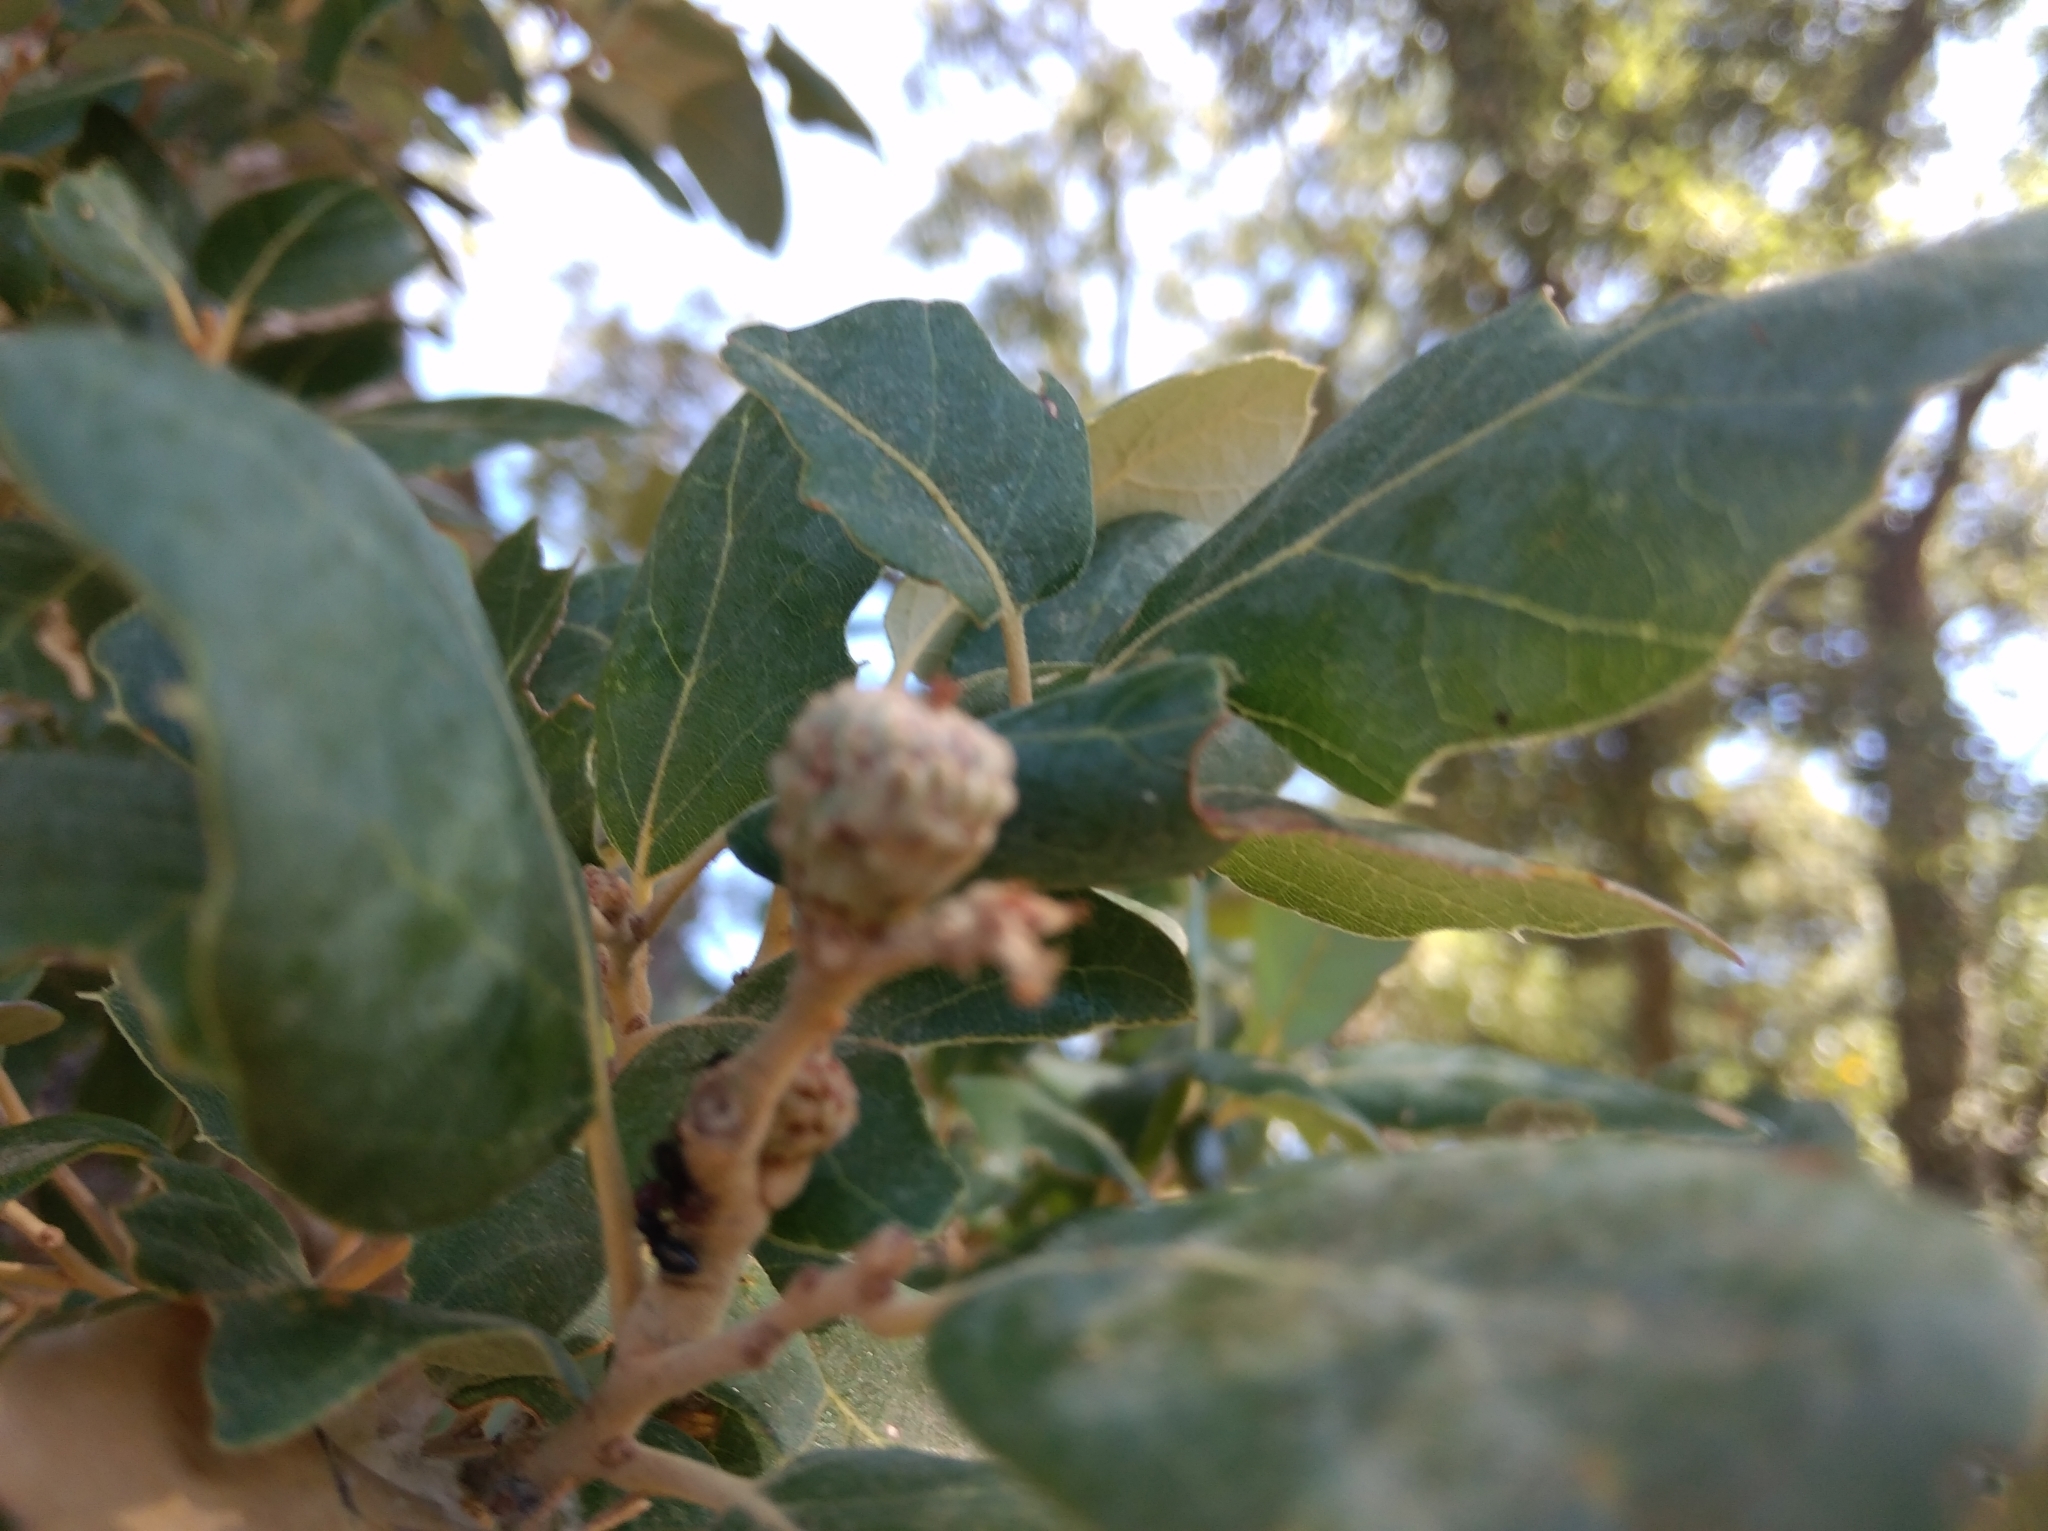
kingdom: Plantae
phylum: Tracheophyta
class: Magnoliopsida
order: Fagales
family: Fagaceae
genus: Quercus
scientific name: Quercus suber
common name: Cork oak
